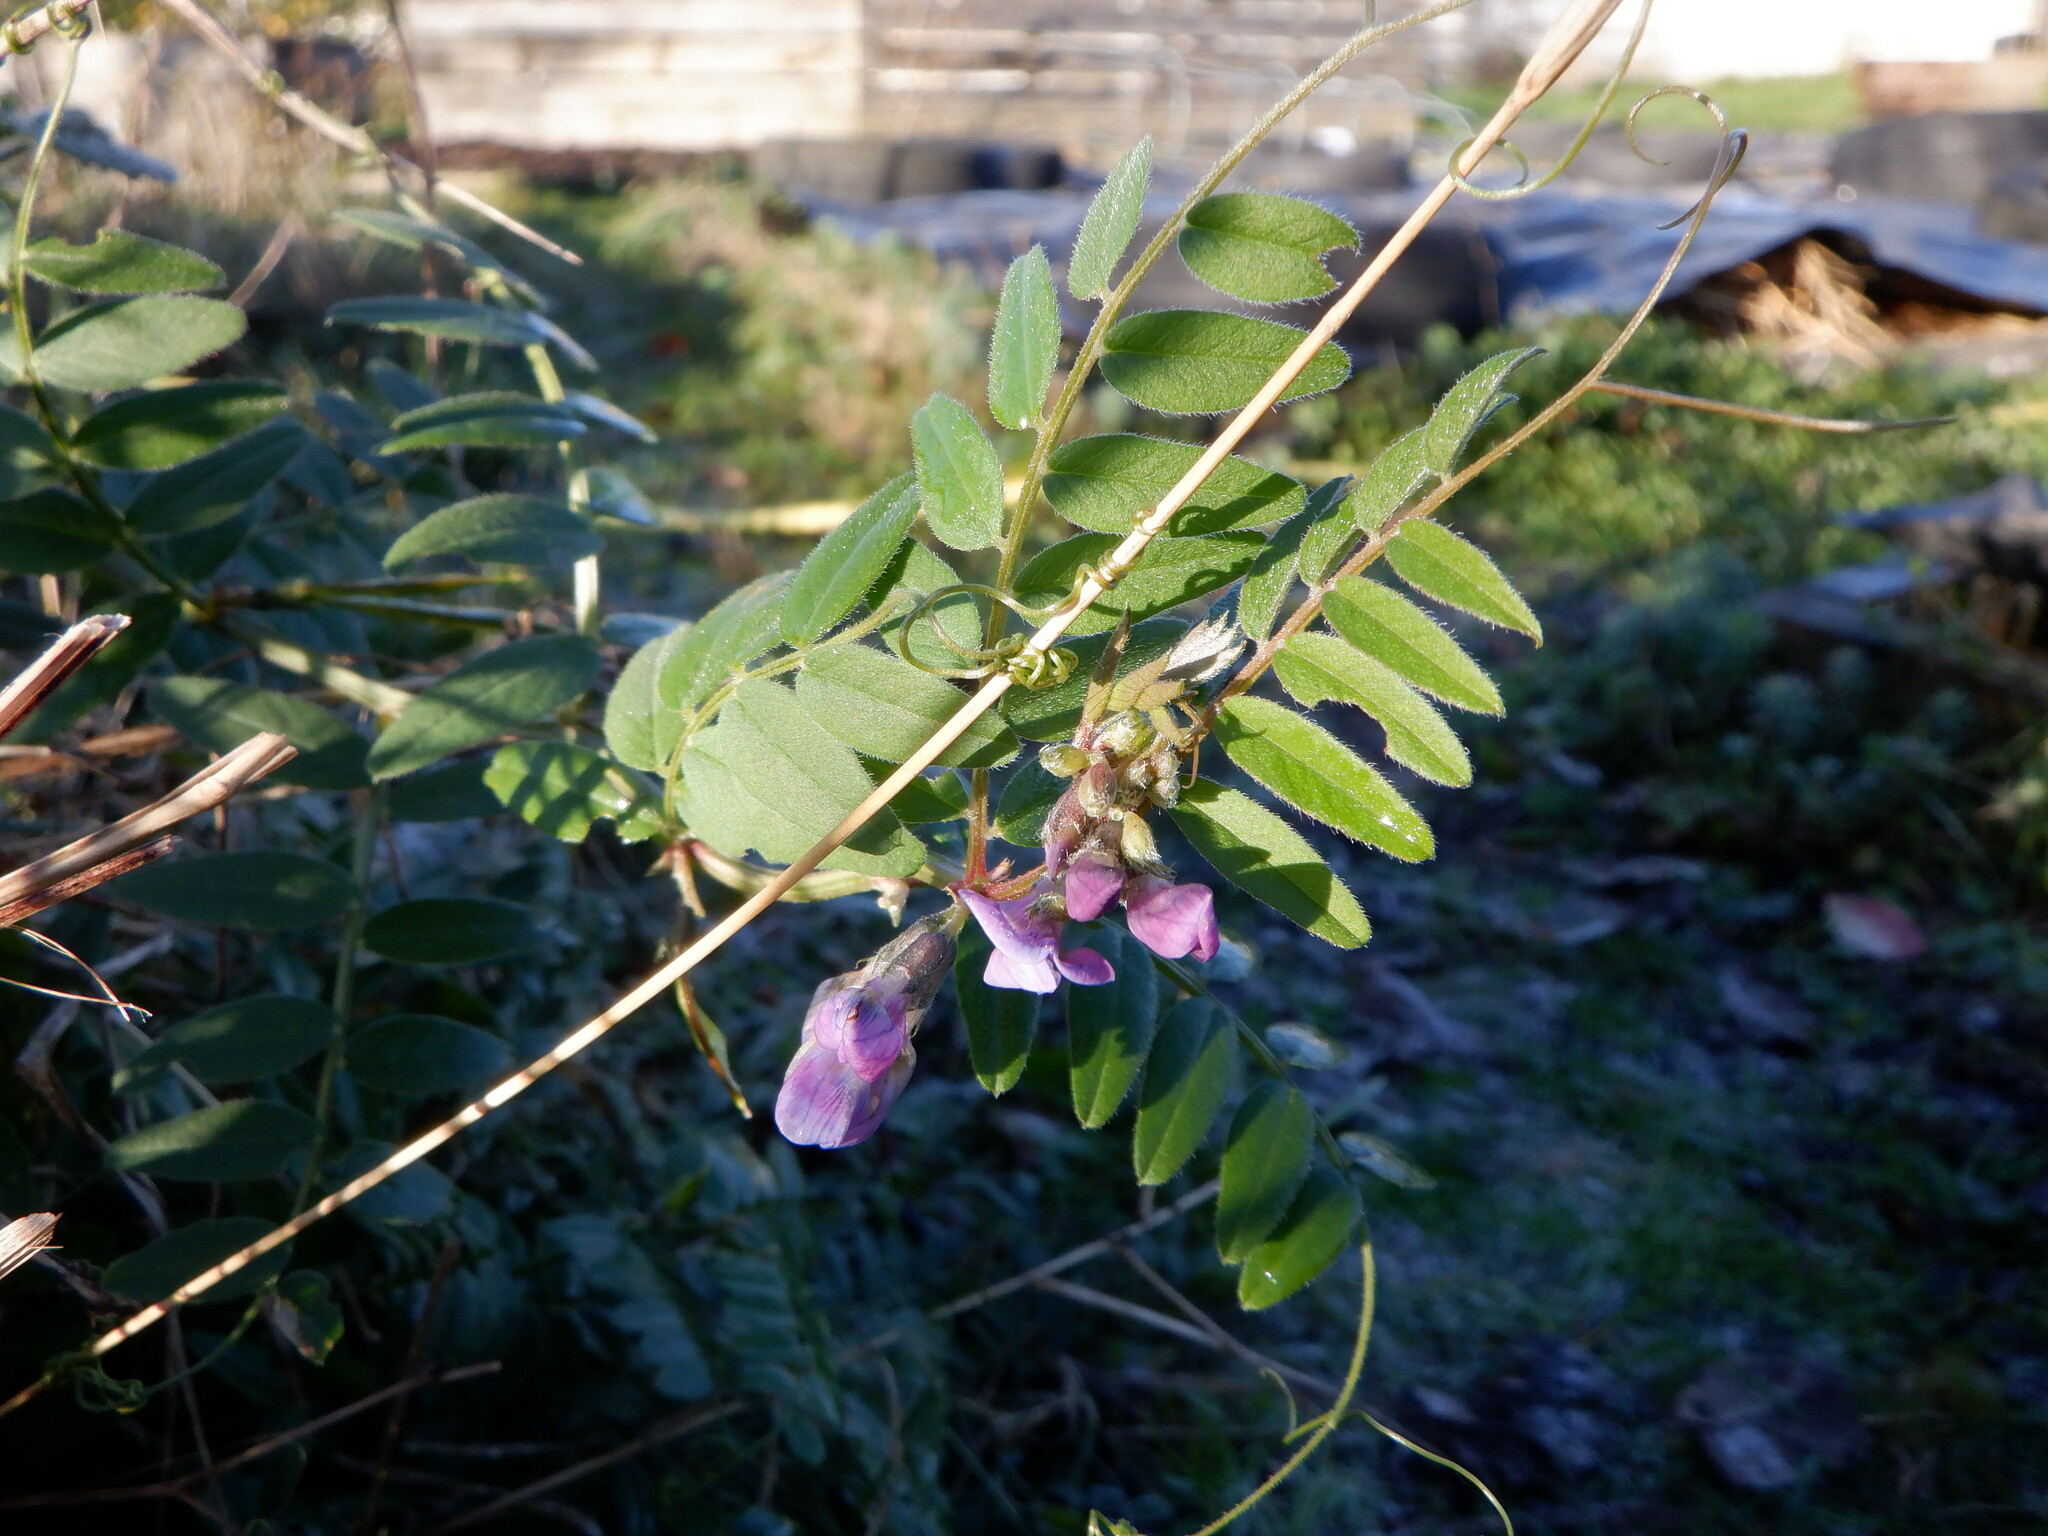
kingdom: Plantae
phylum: Tracheophyta
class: Magnoliopsida
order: Fabales
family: Fabaceae
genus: Vicia
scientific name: Vicia sepium
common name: Bush vetch
